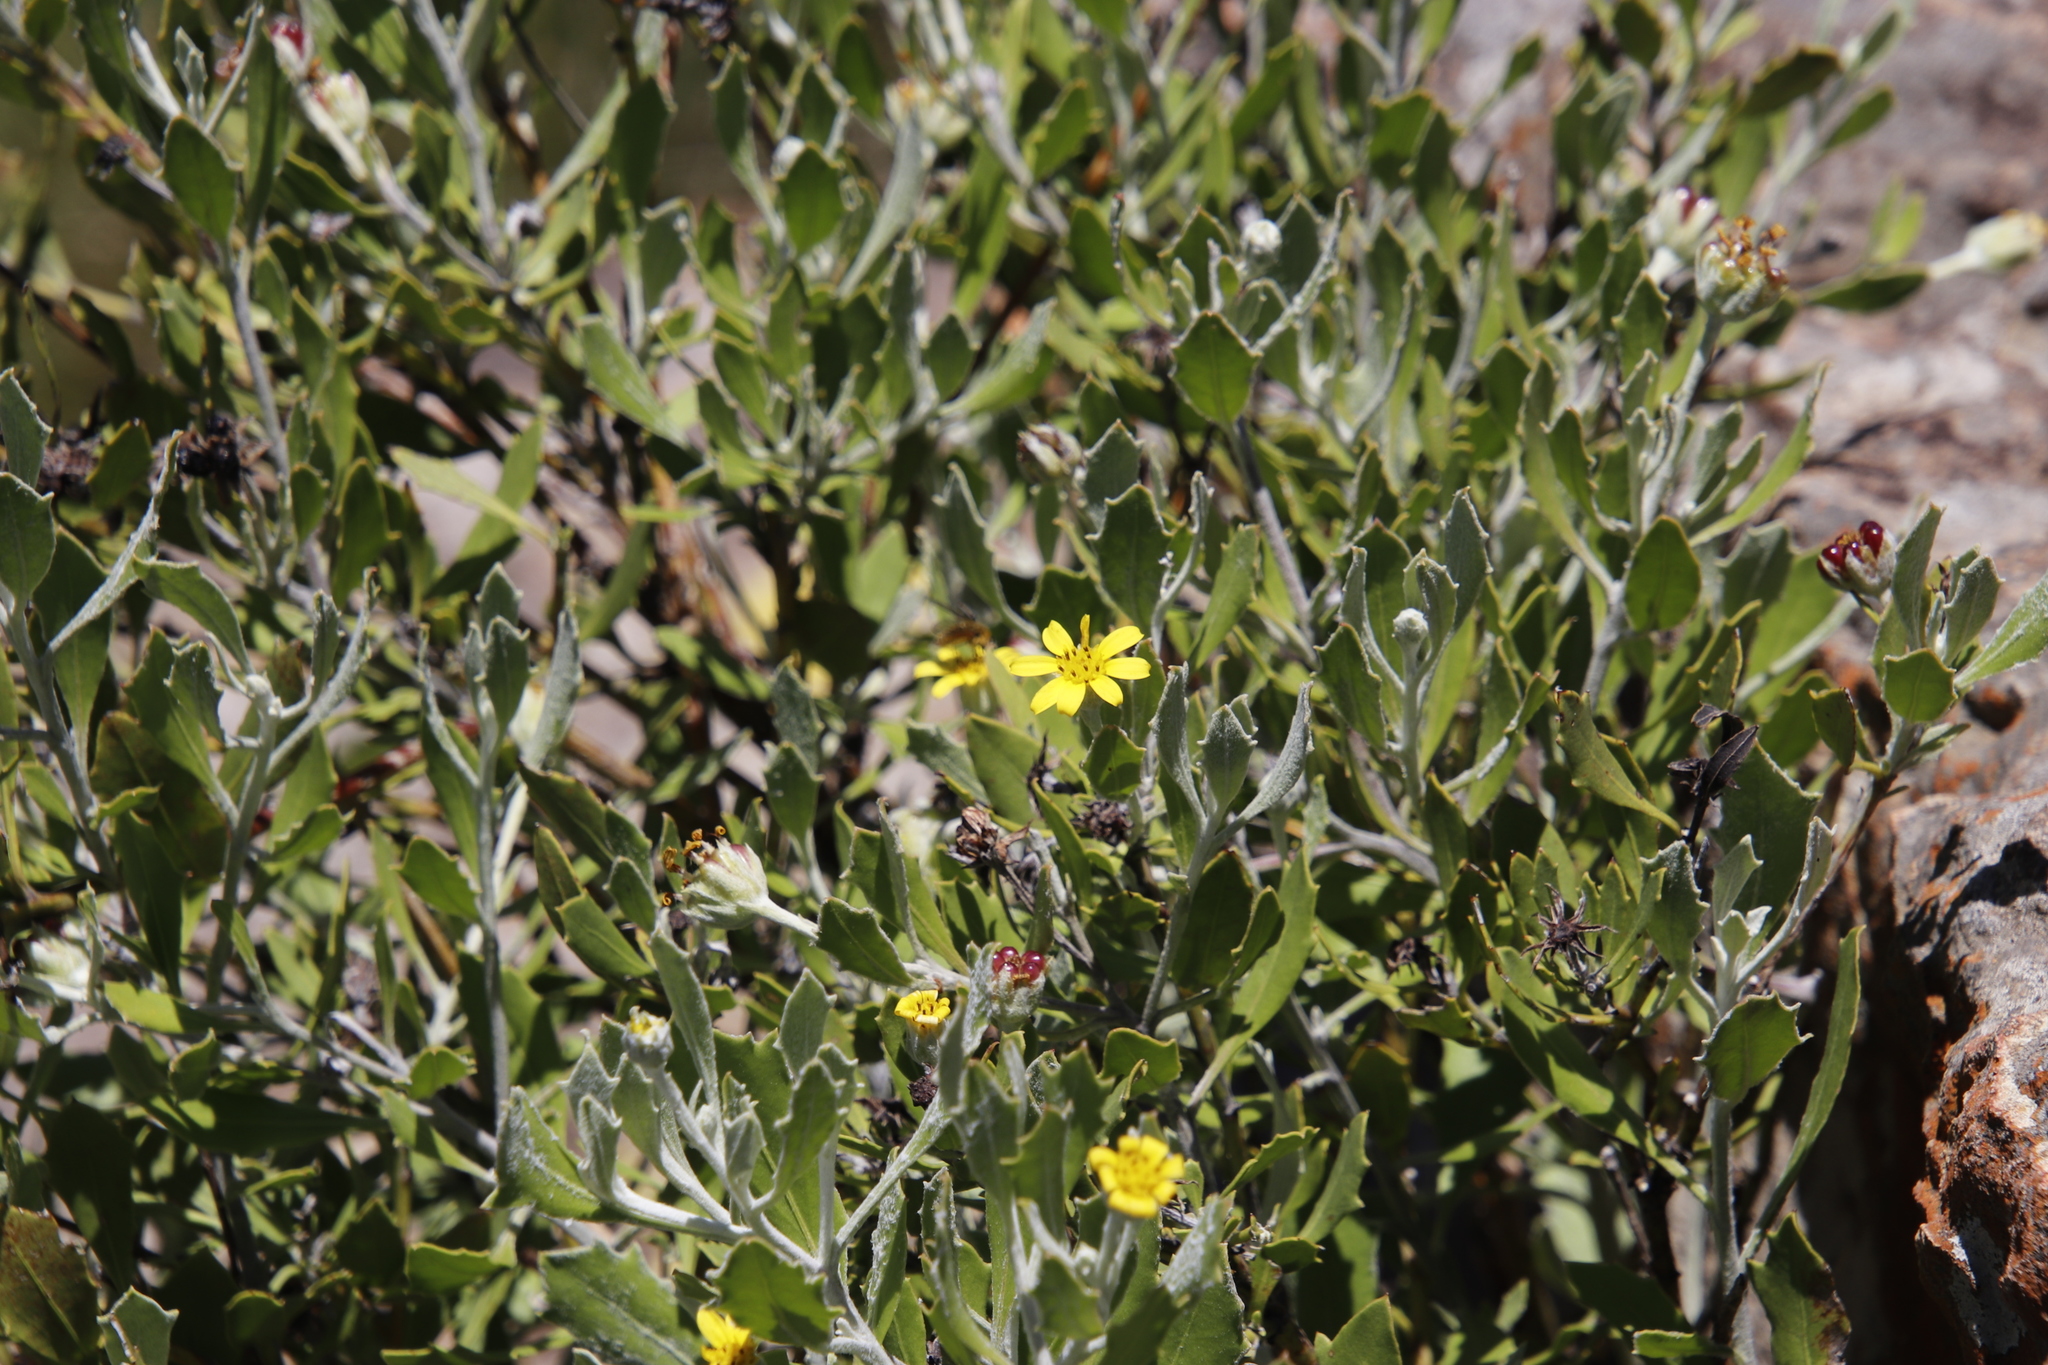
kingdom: Plantae
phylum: Tracheophyta
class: Magnoliopsida
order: Asterales
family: Asteraceae
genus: Osteospermum
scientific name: Osteospermum moniliferum
